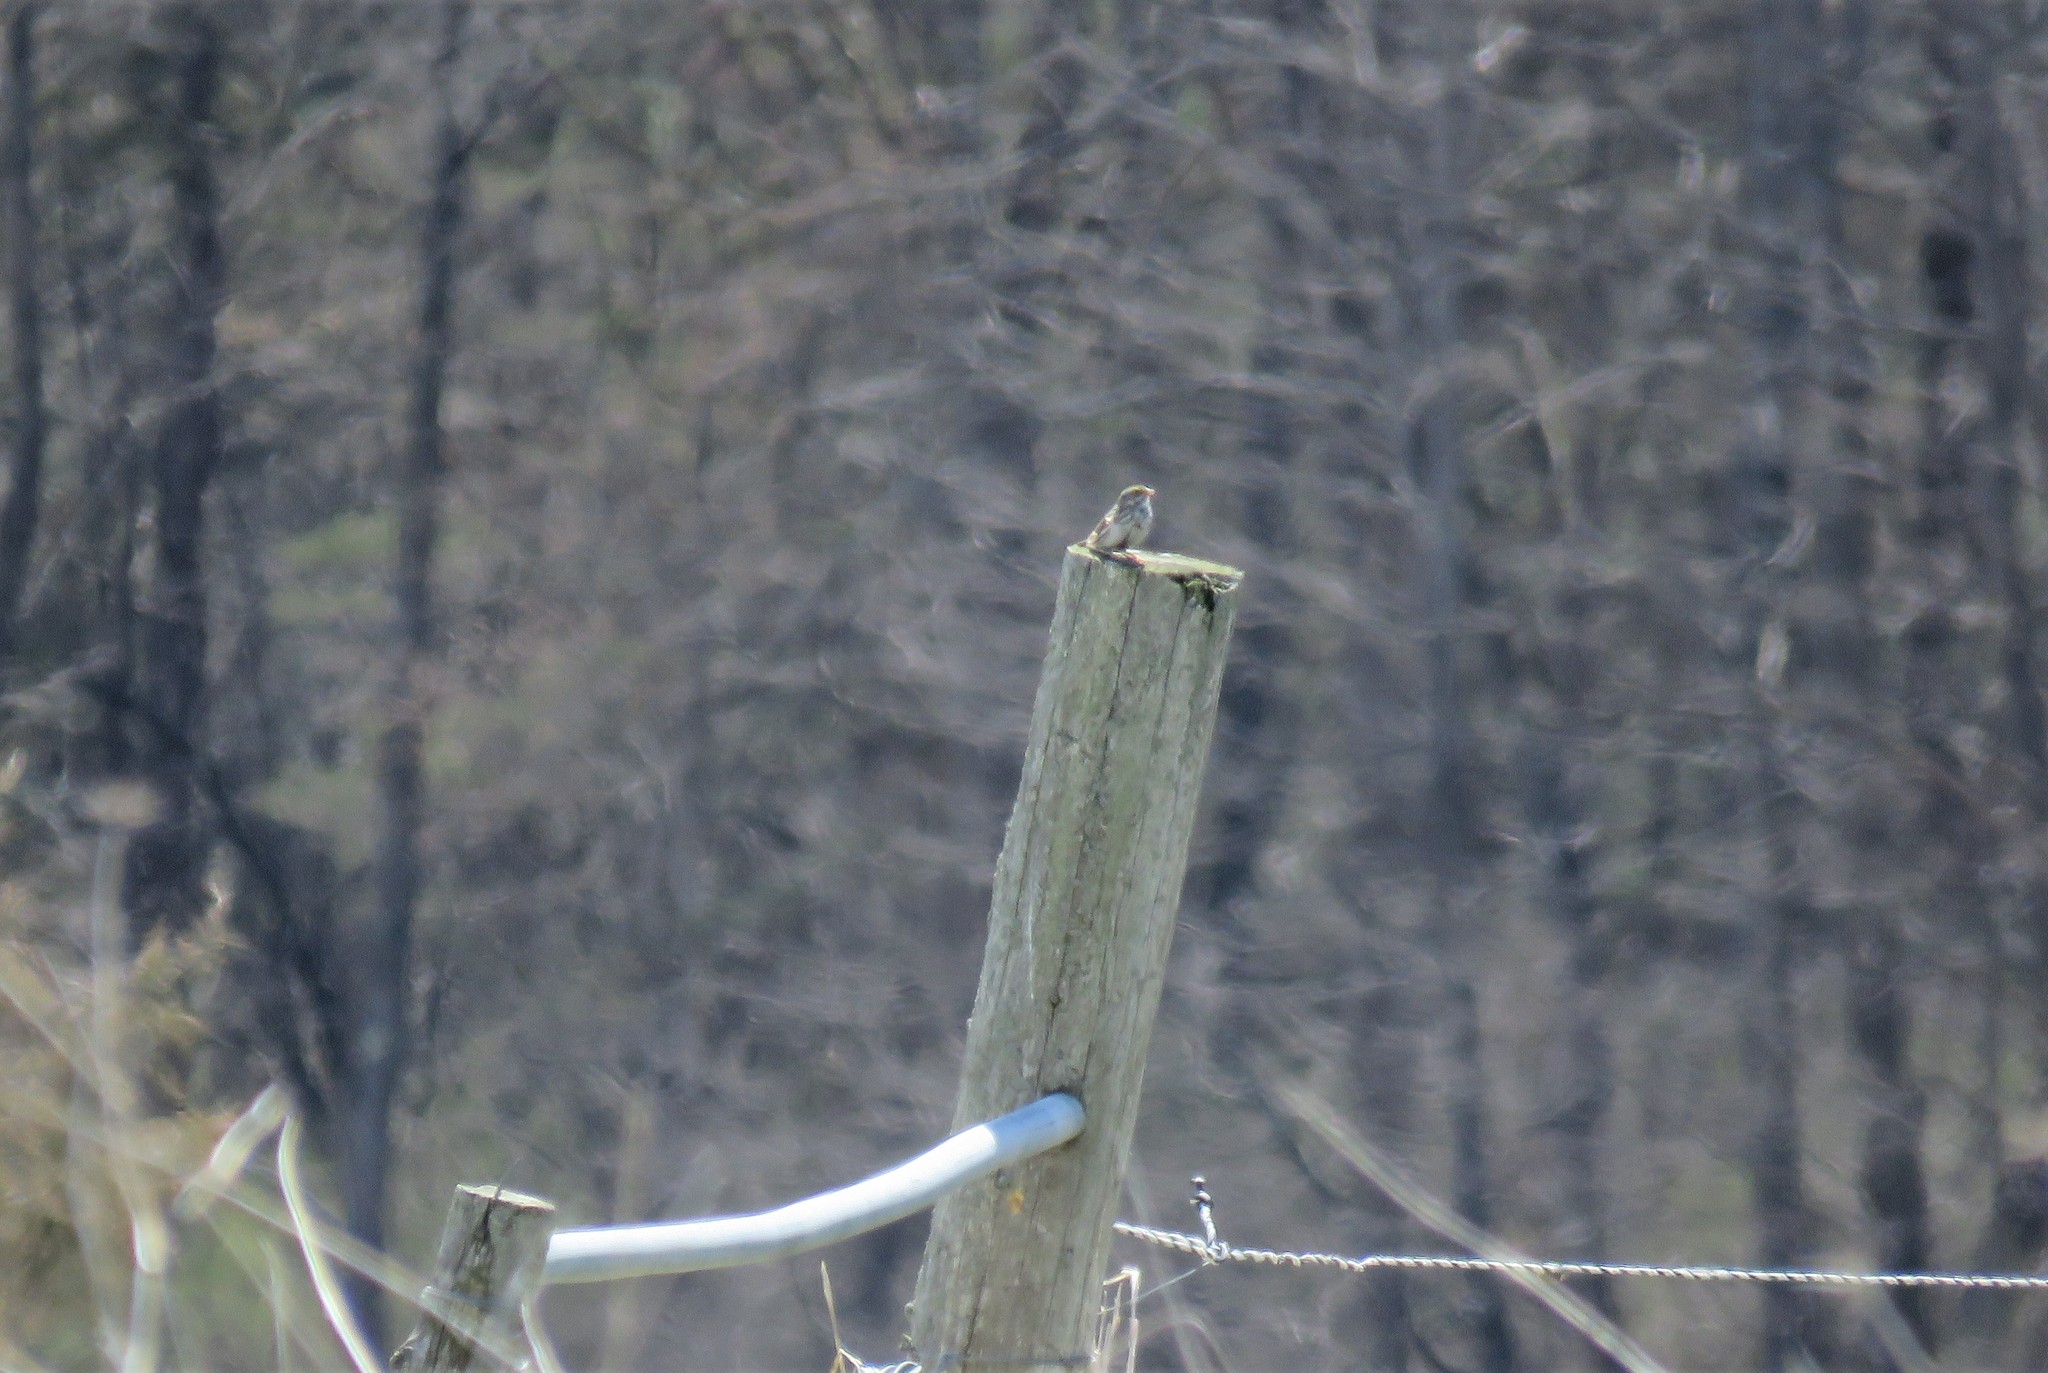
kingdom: Animalia
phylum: Chordata
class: Aves
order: Passeriformes
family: Passerellidae
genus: Passerculus
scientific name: Passerculus sandwichensis
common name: Savannah sparrow
